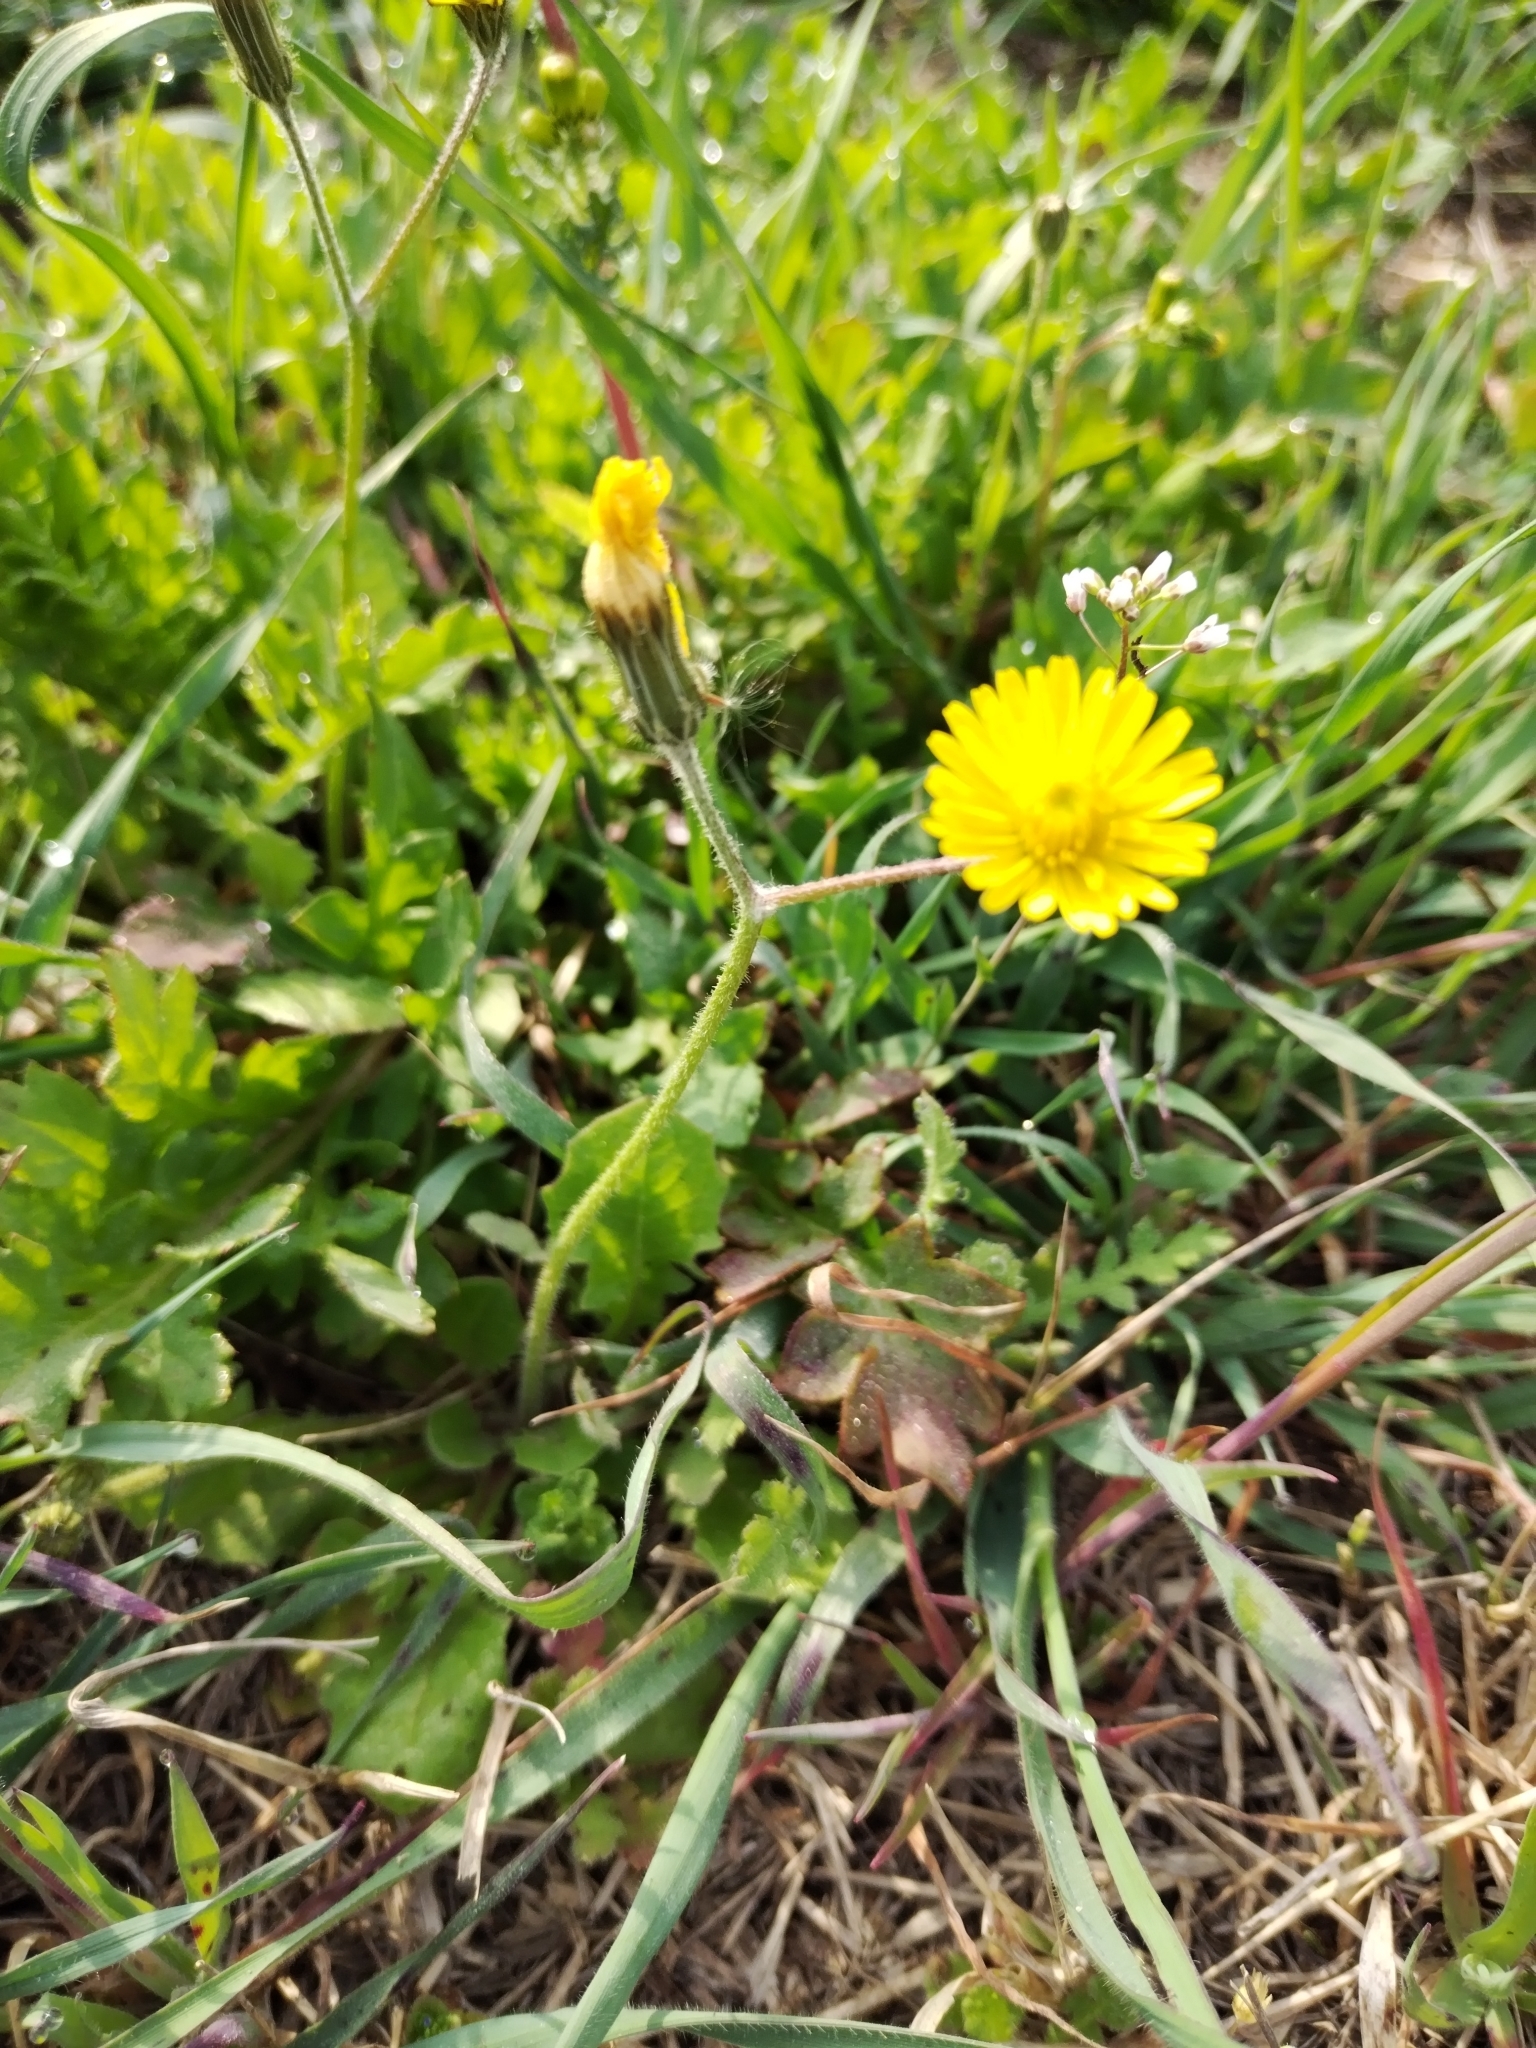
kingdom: Plantae
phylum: Tracheophyta
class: Magnoliopsida
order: Asterales
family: Asteraceae
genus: Crepis
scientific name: Crepis sancta
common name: Hawk's-beard
